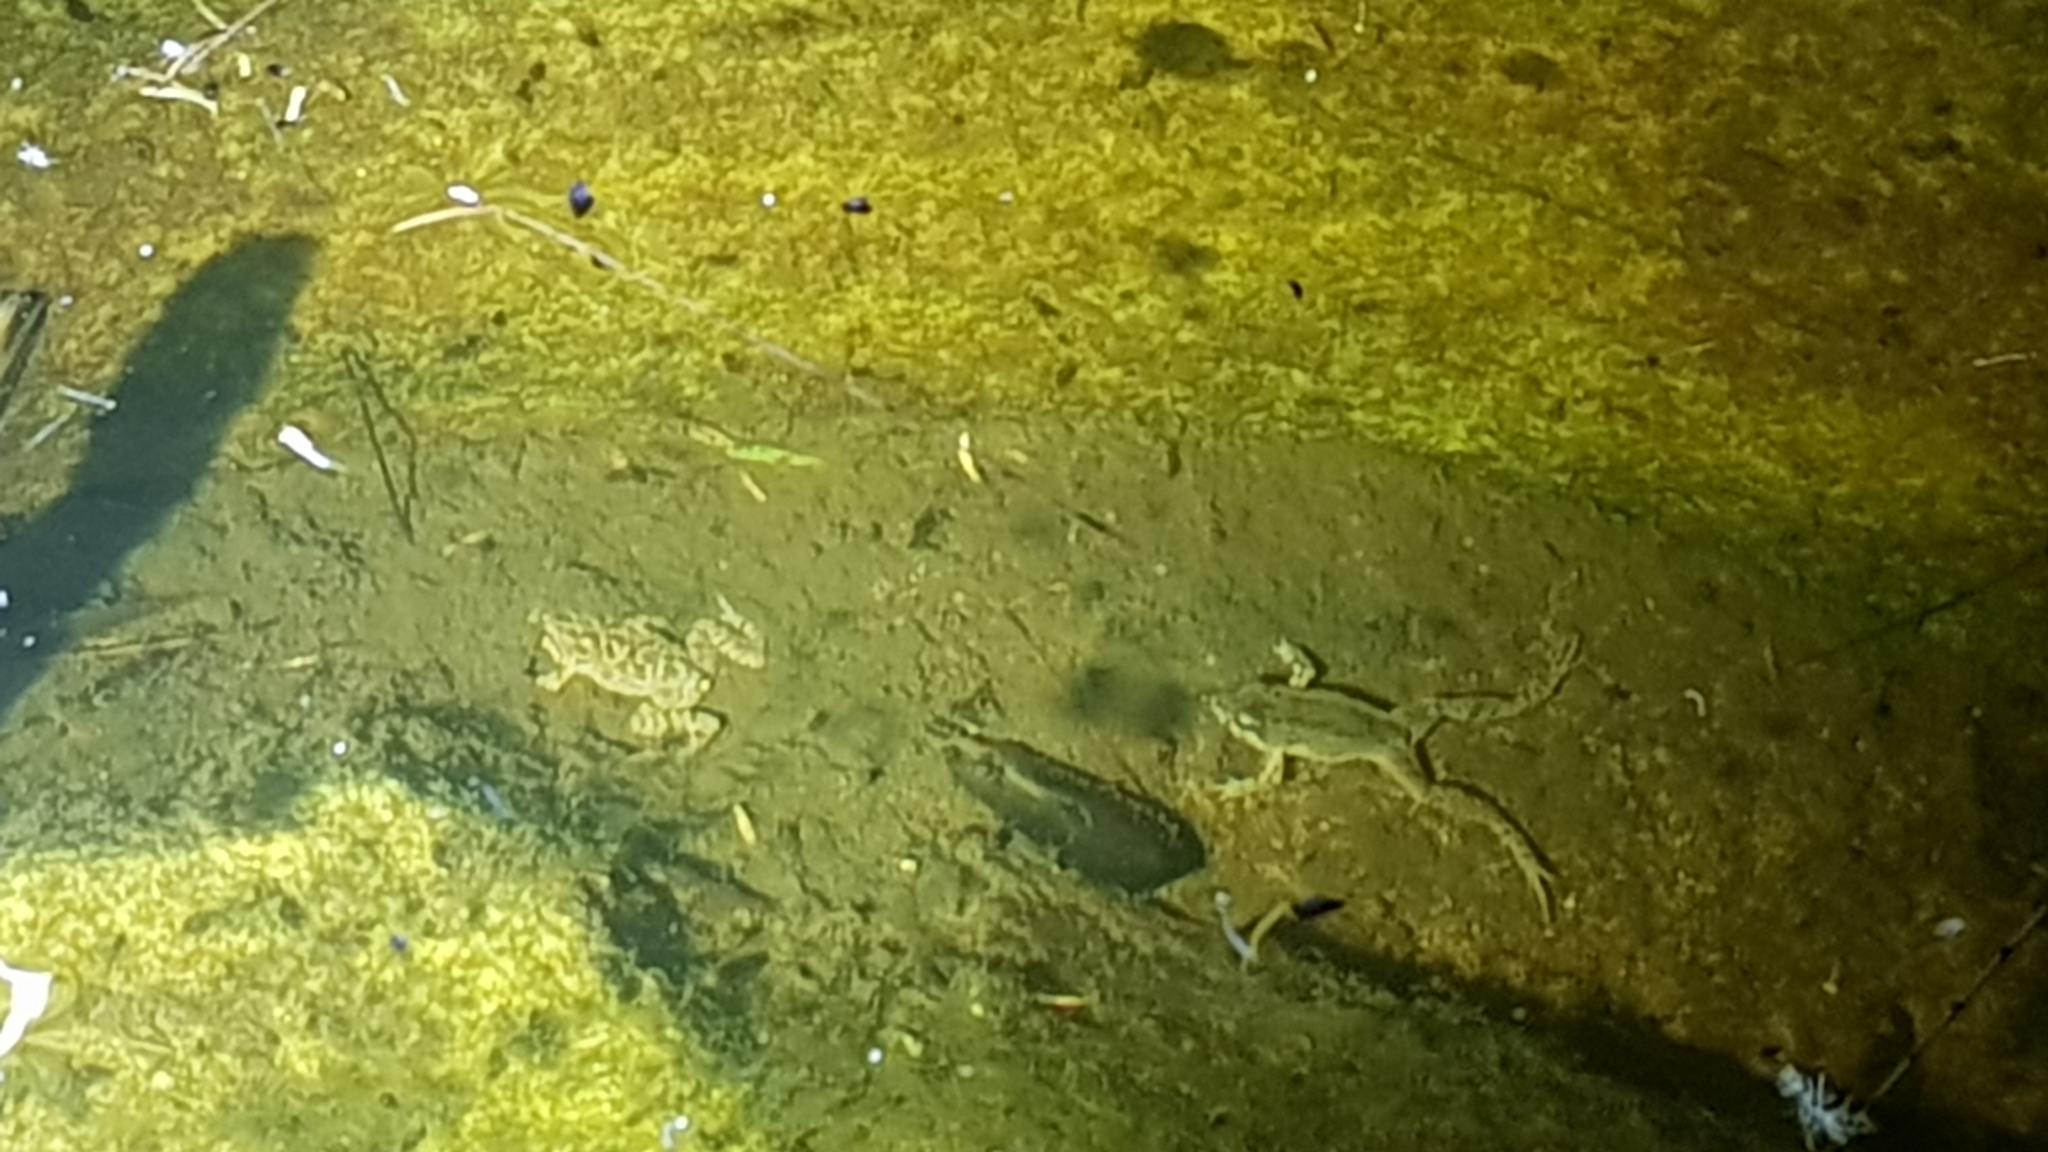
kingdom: Animalia
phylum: Chordata
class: Amphibia
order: Anura
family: Myobatrachidae
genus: Crinia
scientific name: Crinia signifera
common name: Brown froglet
